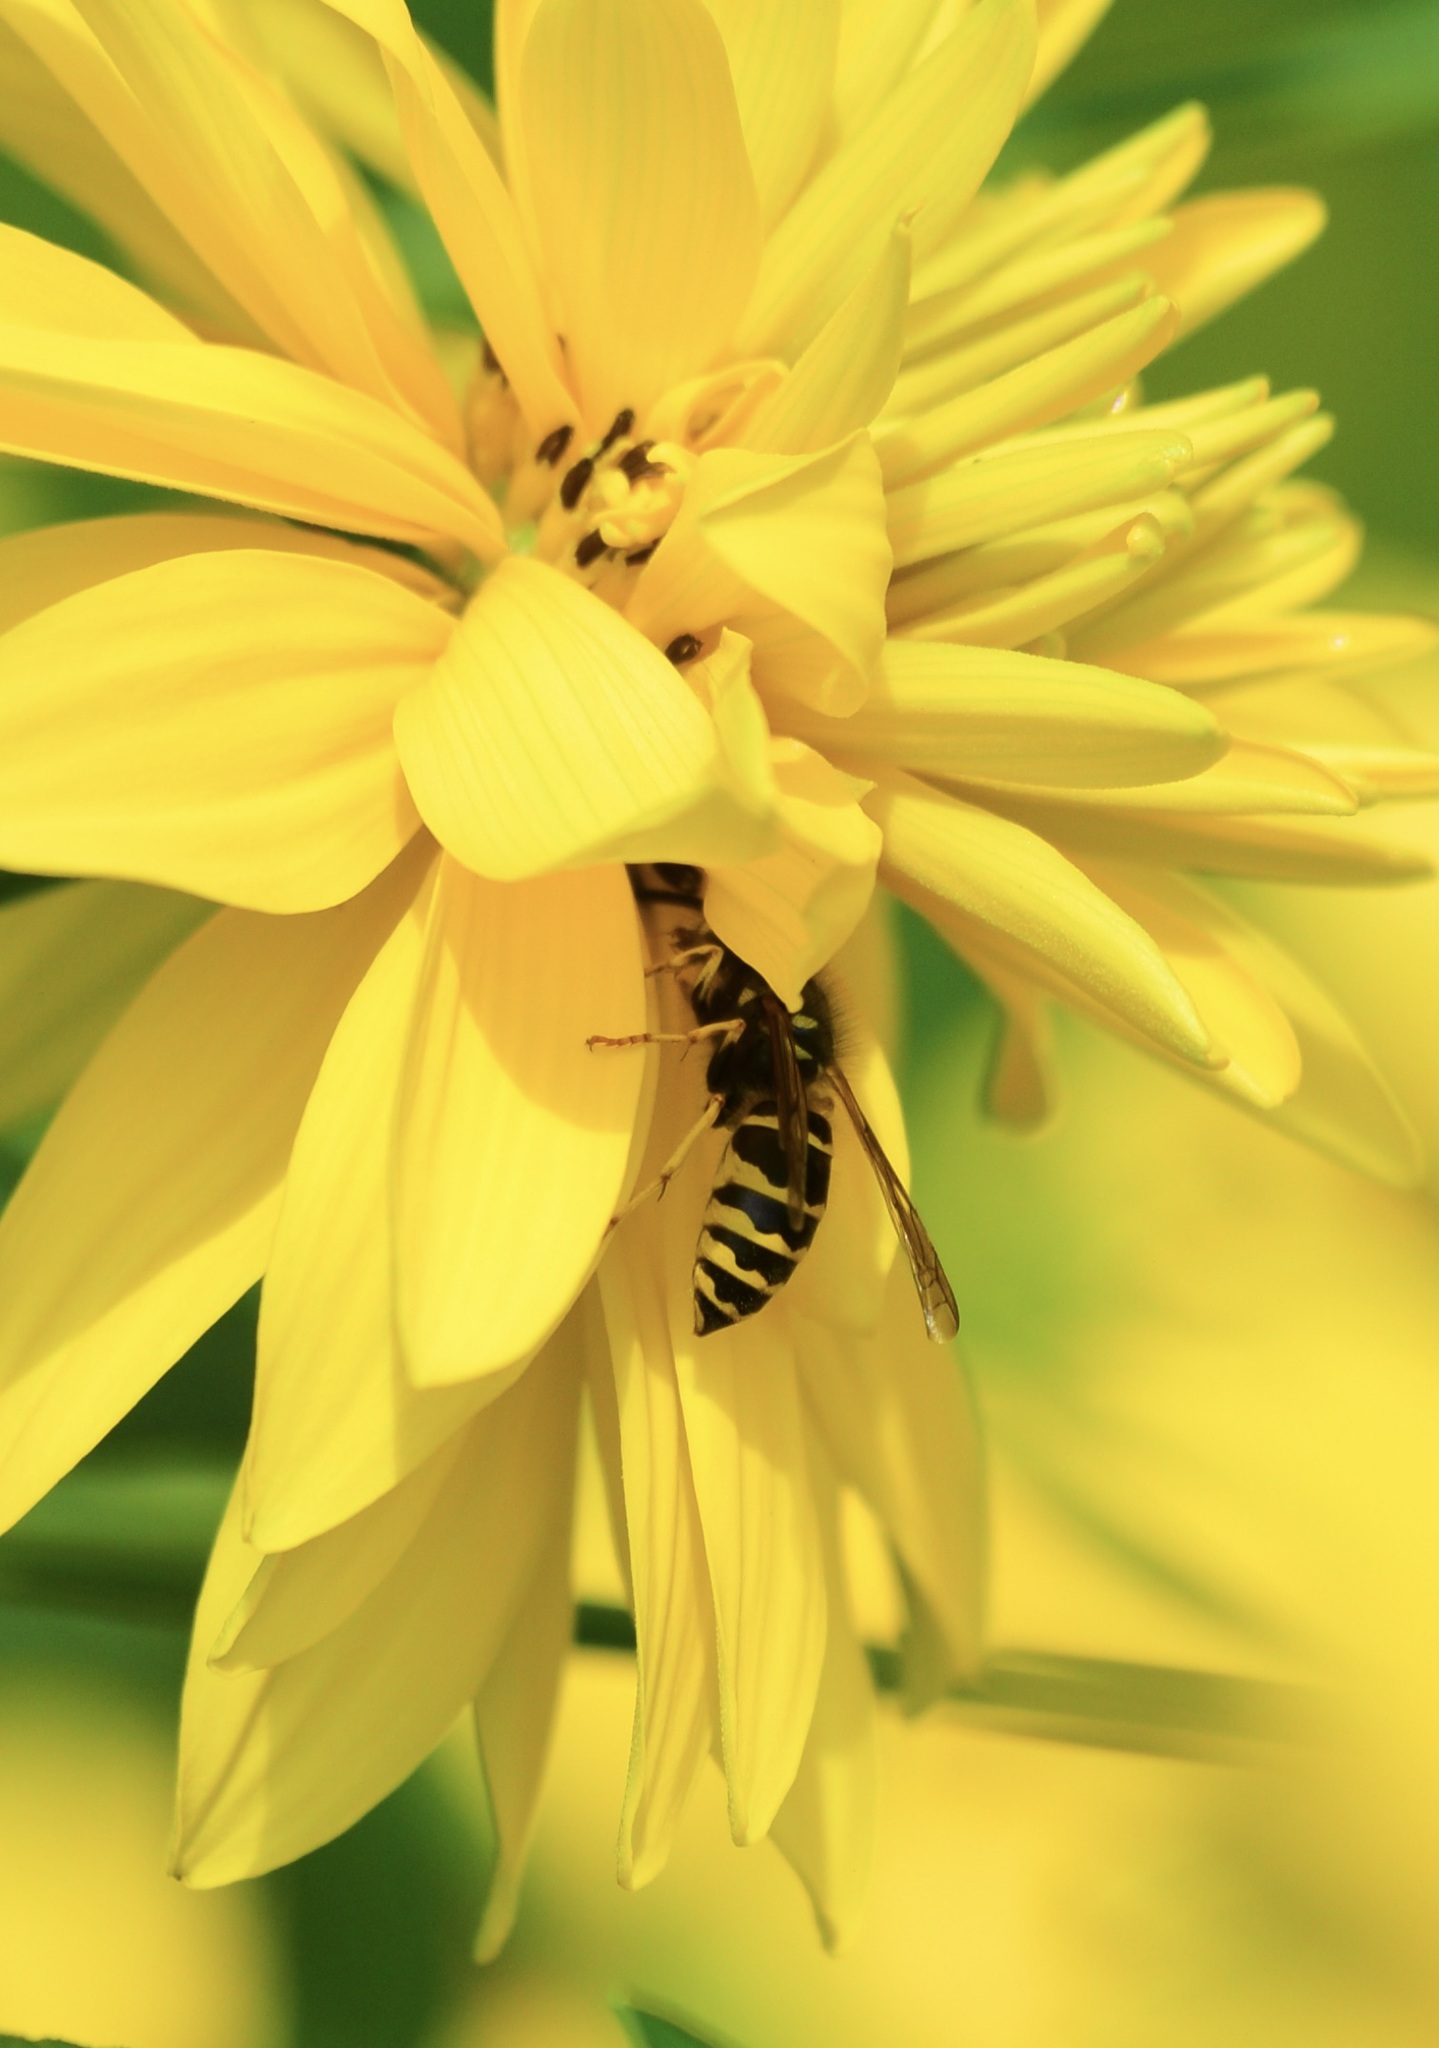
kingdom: Animalia
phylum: Arthropoda
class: Insecta
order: Hymenoptera
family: Vespidae
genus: Vespula
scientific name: Vespula alascensis
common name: Alaska yellowjacket
